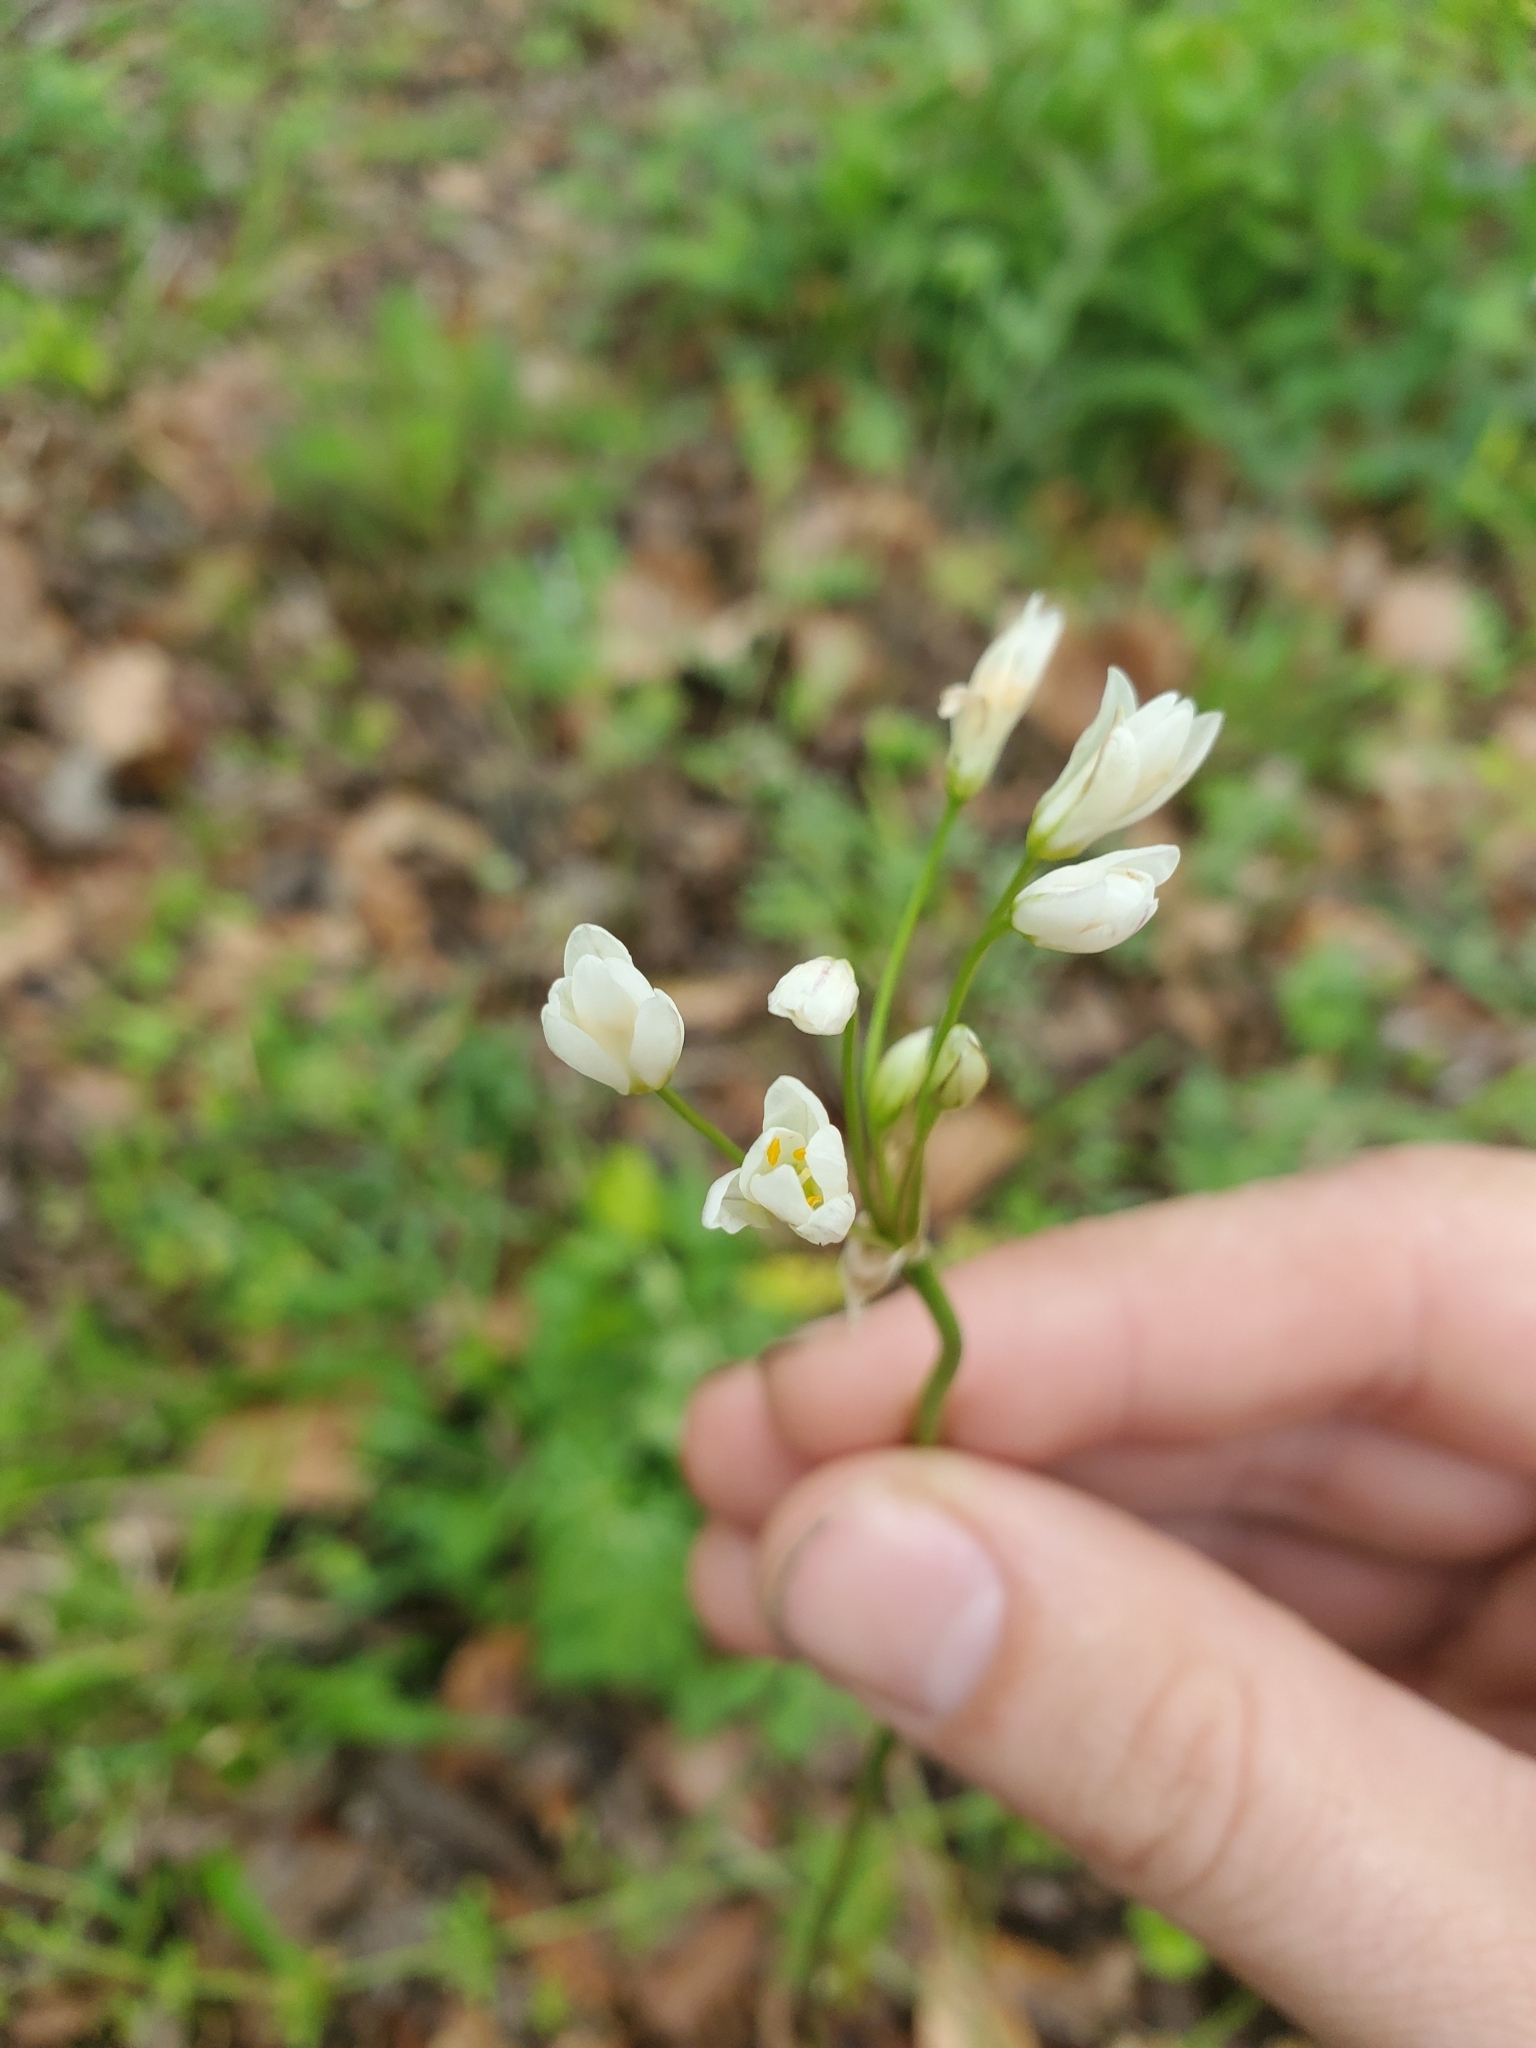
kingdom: Plantae
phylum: Tracheophyta
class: Liliopsida
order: Asparagales
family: Amaryllidaceae
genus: Nothoscordum
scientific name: Nothoscordum bivalve
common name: Crow-poison
